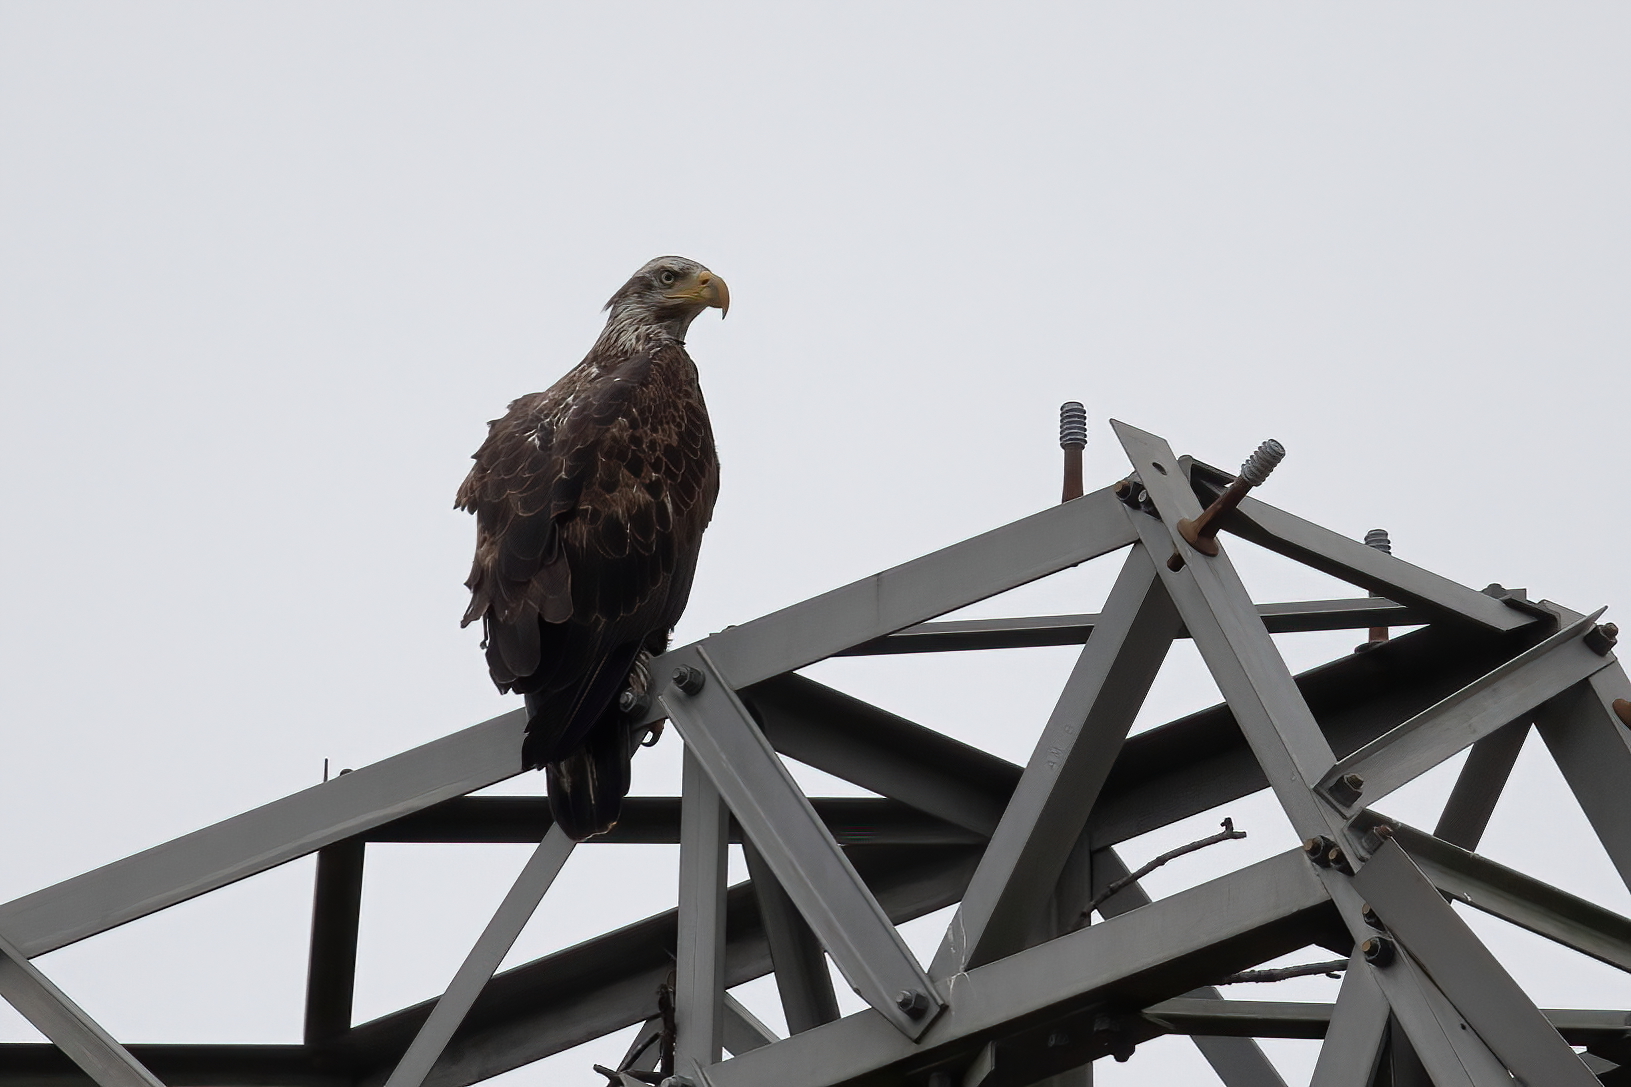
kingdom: Animalia
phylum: Chordata
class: Aves
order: Accipitriformes
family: Accipitridae
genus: Haliaeetus
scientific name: Haliaeetus leucocephalus
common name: Bald eagle
